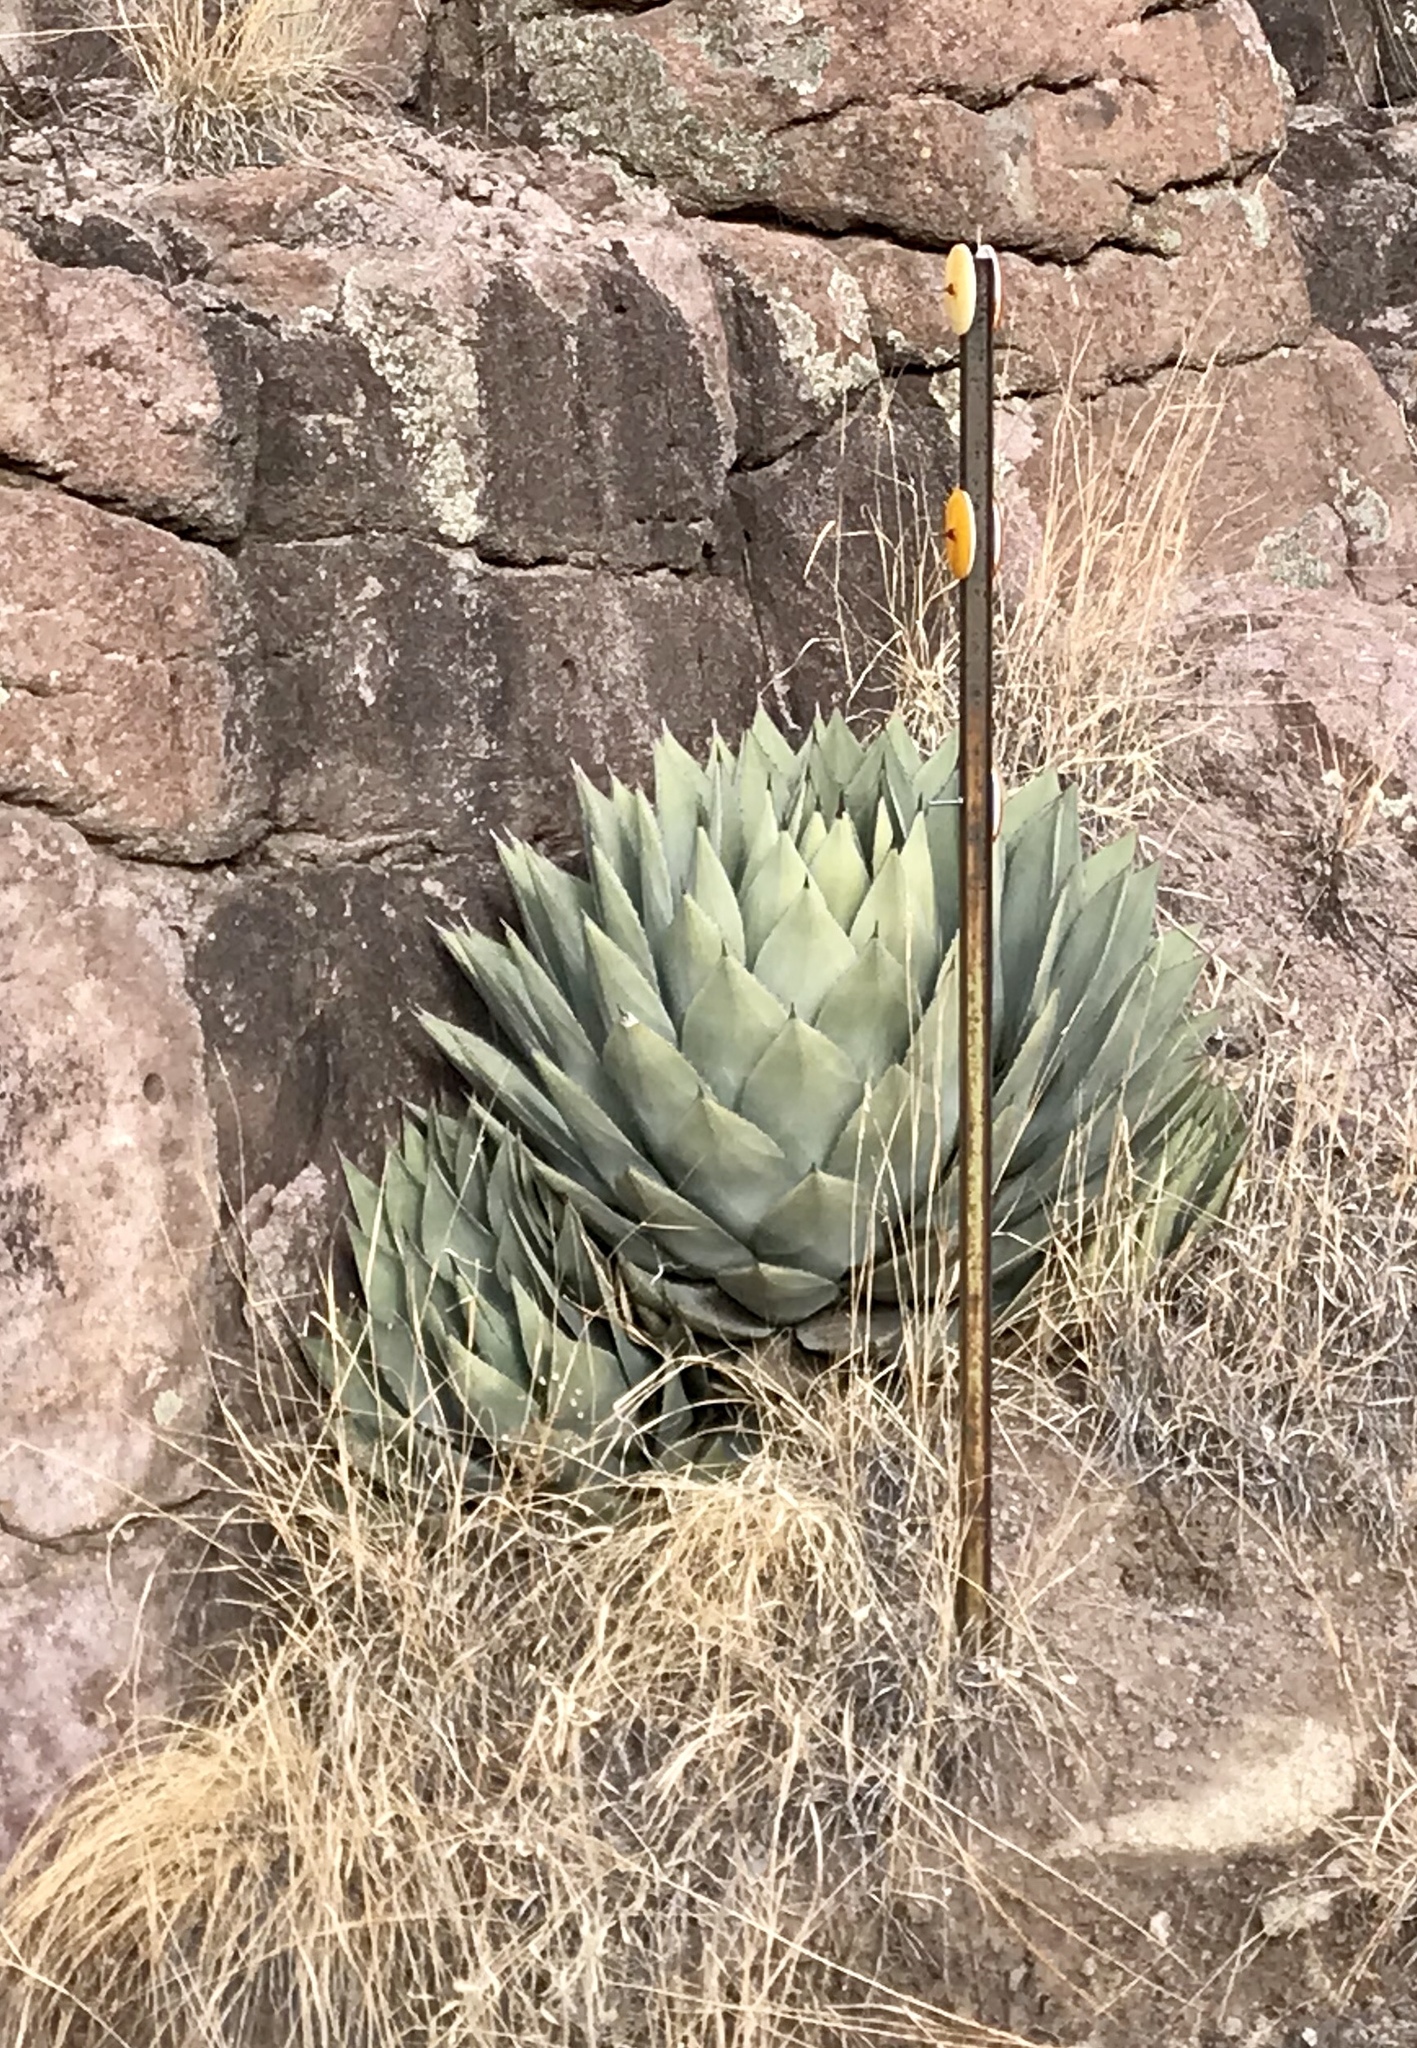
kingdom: Plantae
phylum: Tracheophyta
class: Liliopsida
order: Asparagales
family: Asparagaceae
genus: Agave
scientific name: Agave parryi
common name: Parry's agave
